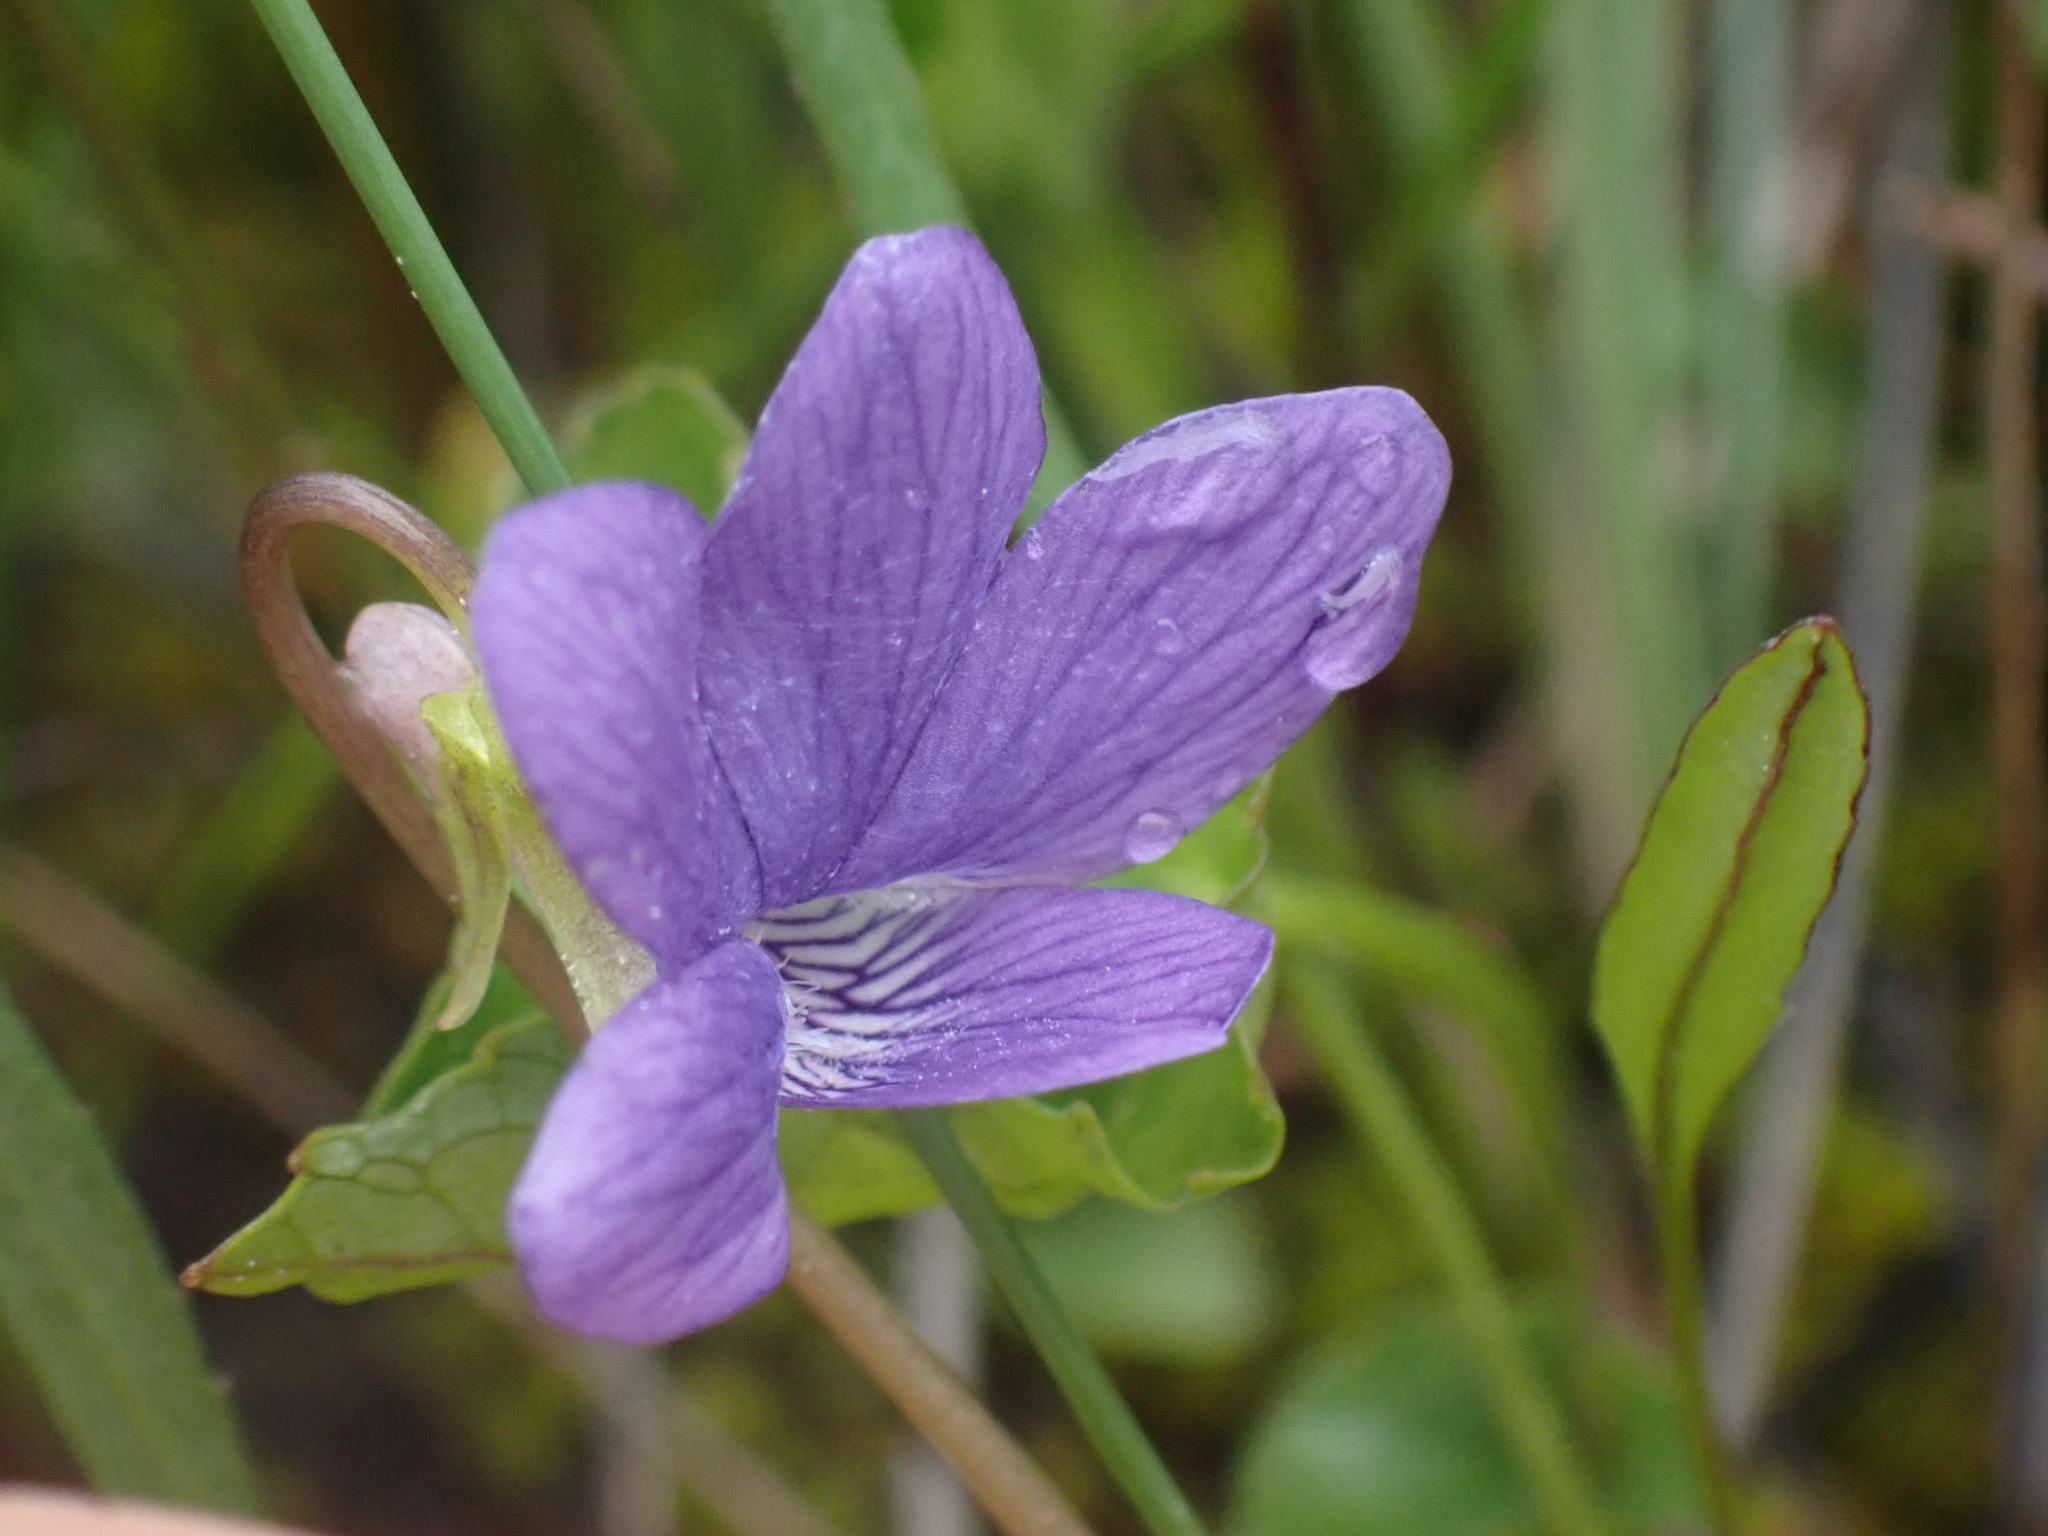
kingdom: Plantae
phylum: Tracheophyta
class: Magnoliopsida
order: Malpighiales
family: Violaceae
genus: Viola
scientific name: Viola nephrophylla
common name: Blue meadow violet
